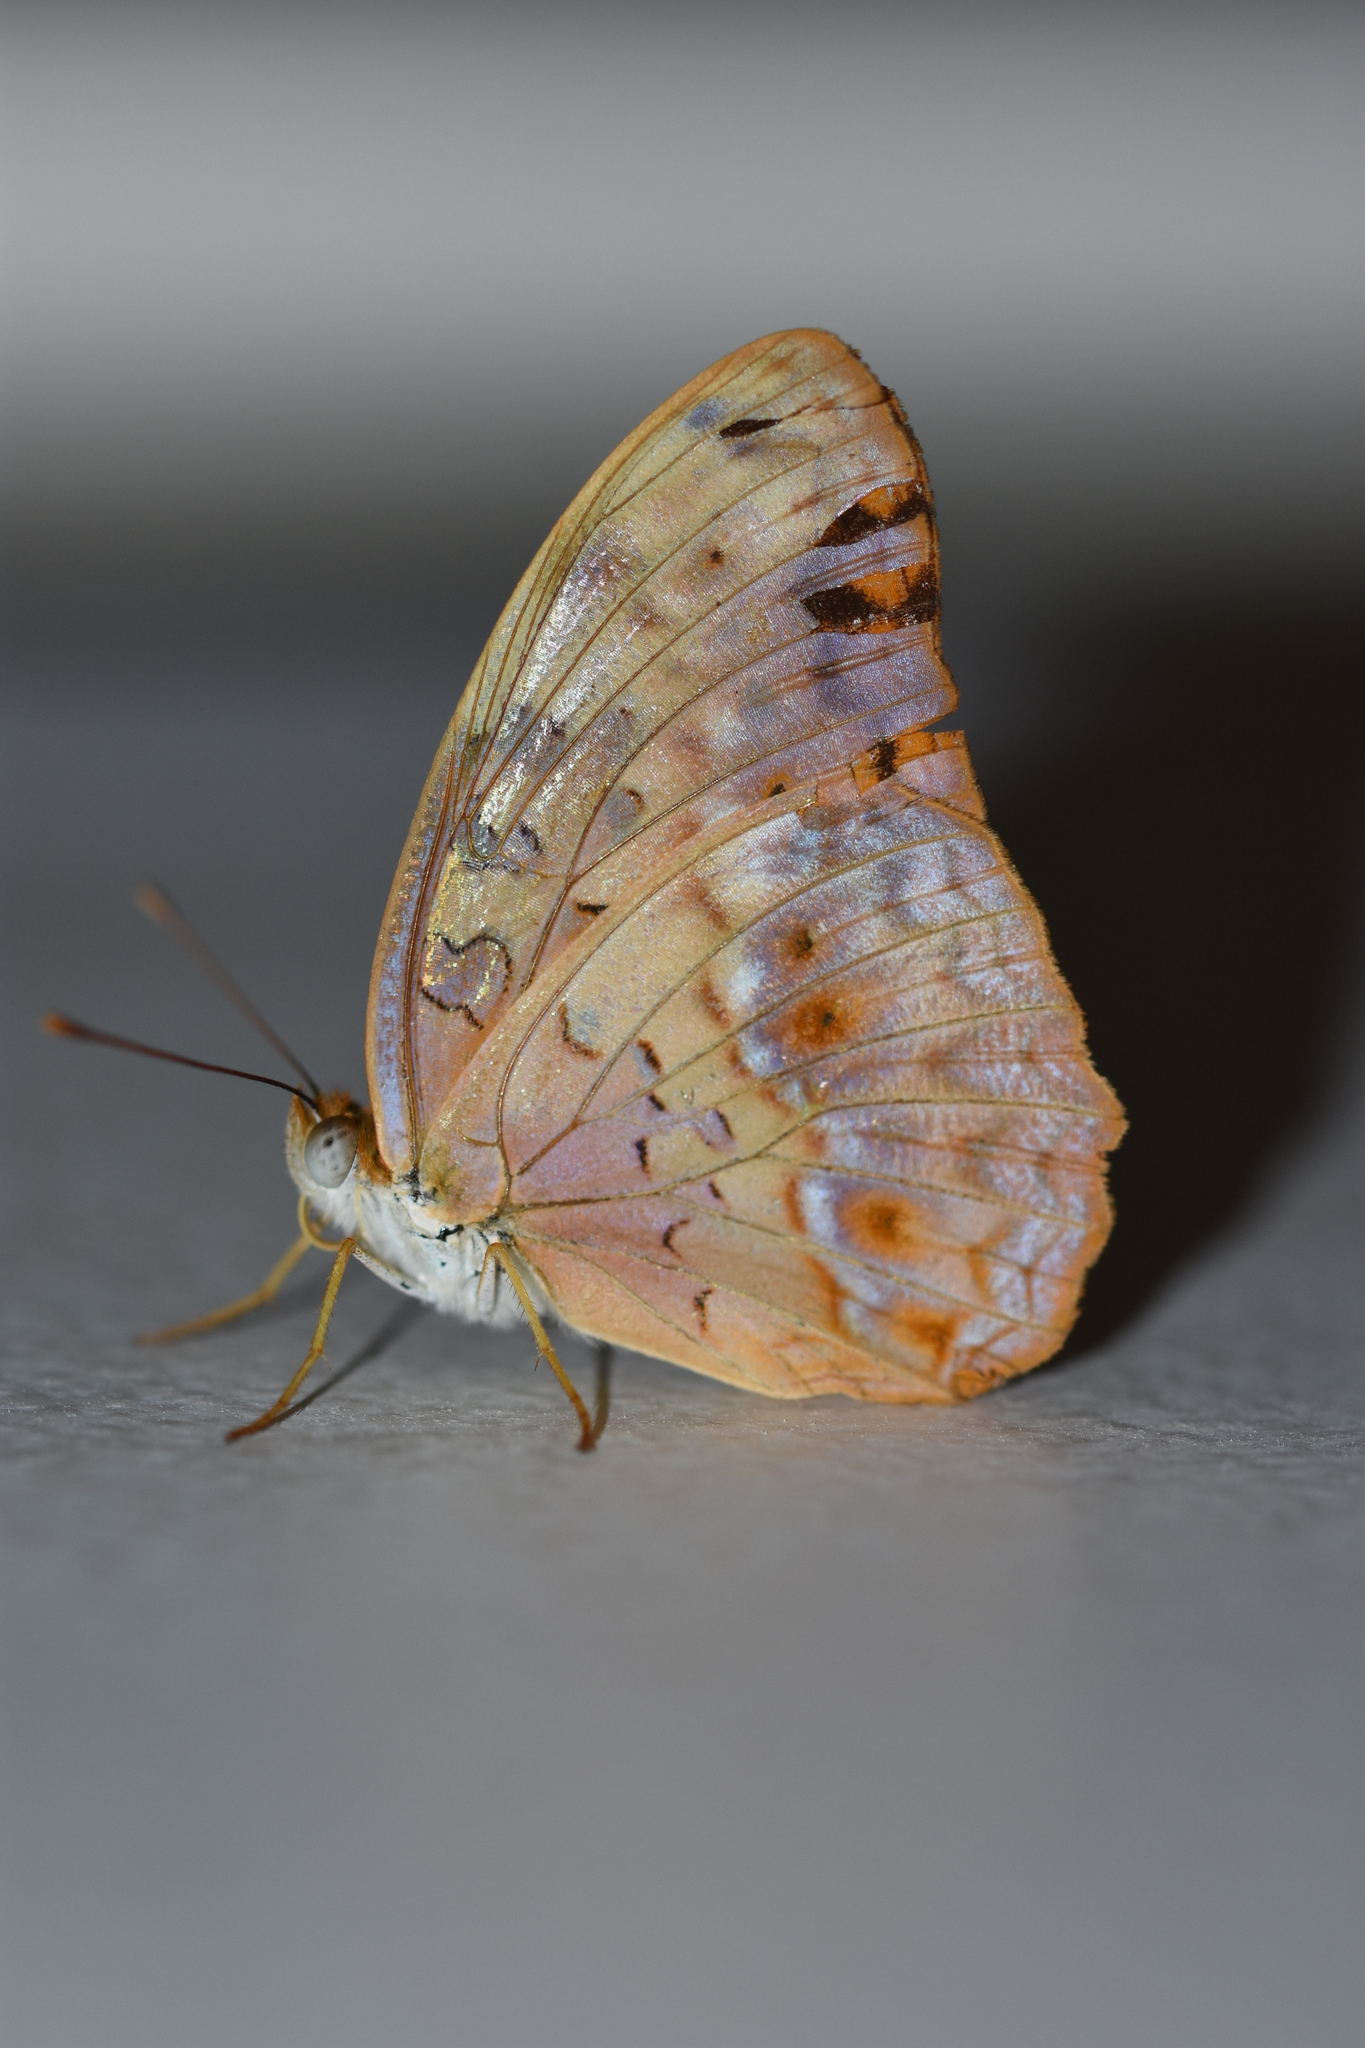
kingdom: Animalia
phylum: Arthropoda
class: Insecta
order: Lepidoptera
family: Nymphalidae
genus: Phalanta
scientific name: Phalanta phalantha
